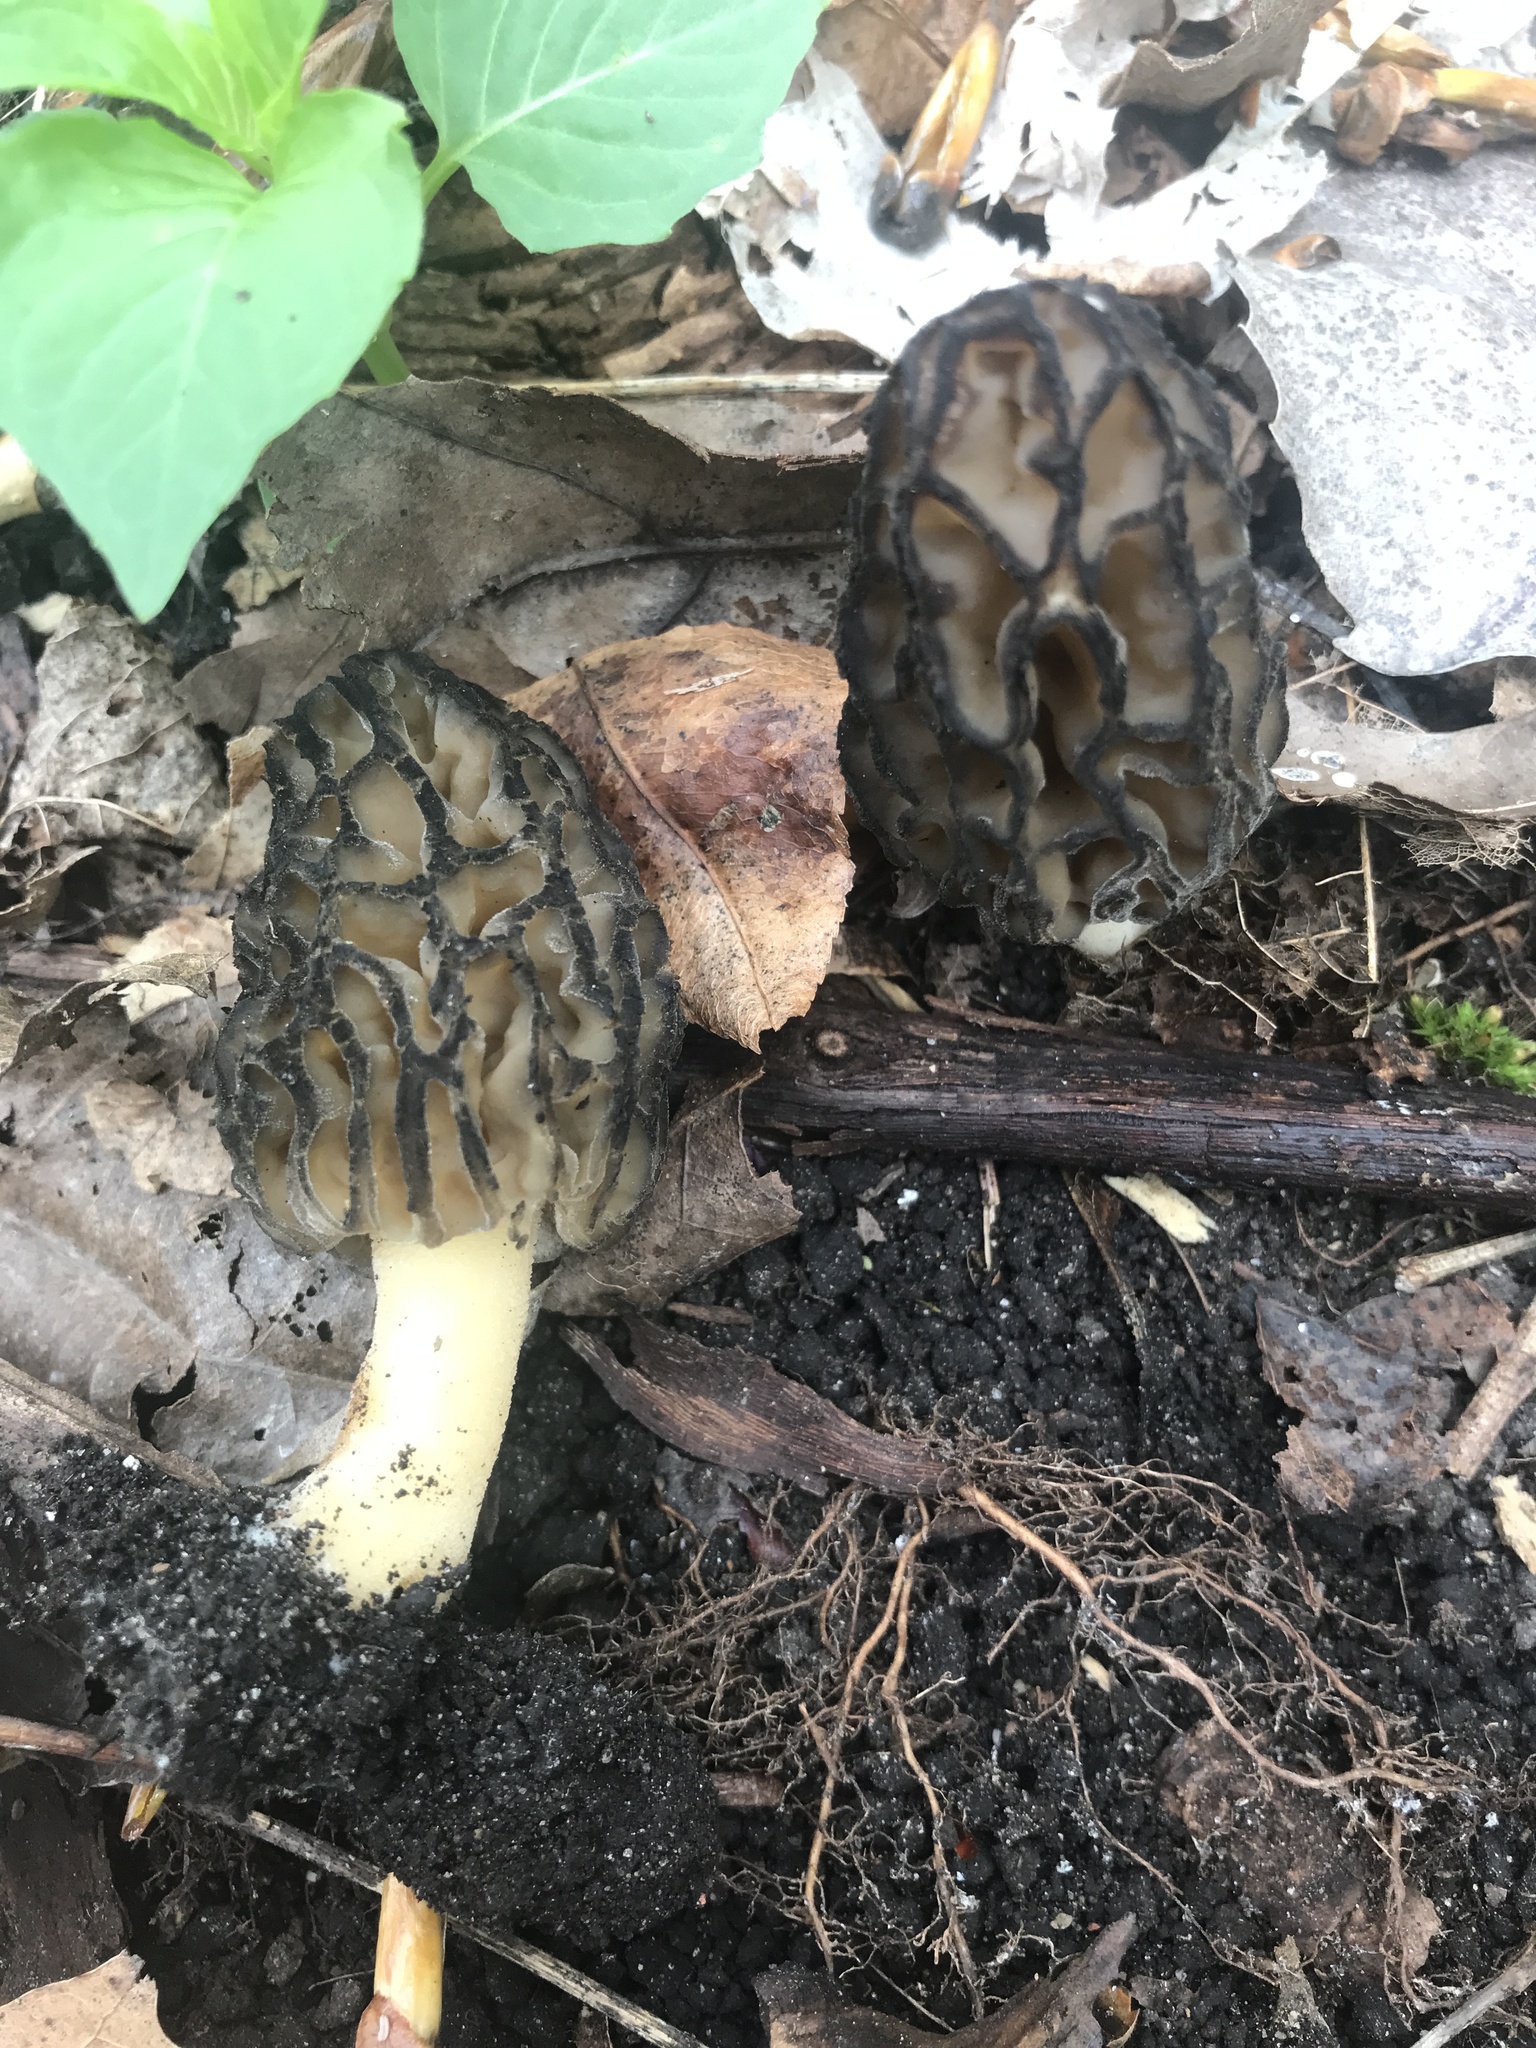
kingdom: Fungi
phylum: Ascomycota
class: Pezizomycetes
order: Pezizales
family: Morchellaceae
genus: Morchella
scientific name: Morchella angusticeps
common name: Black morel
